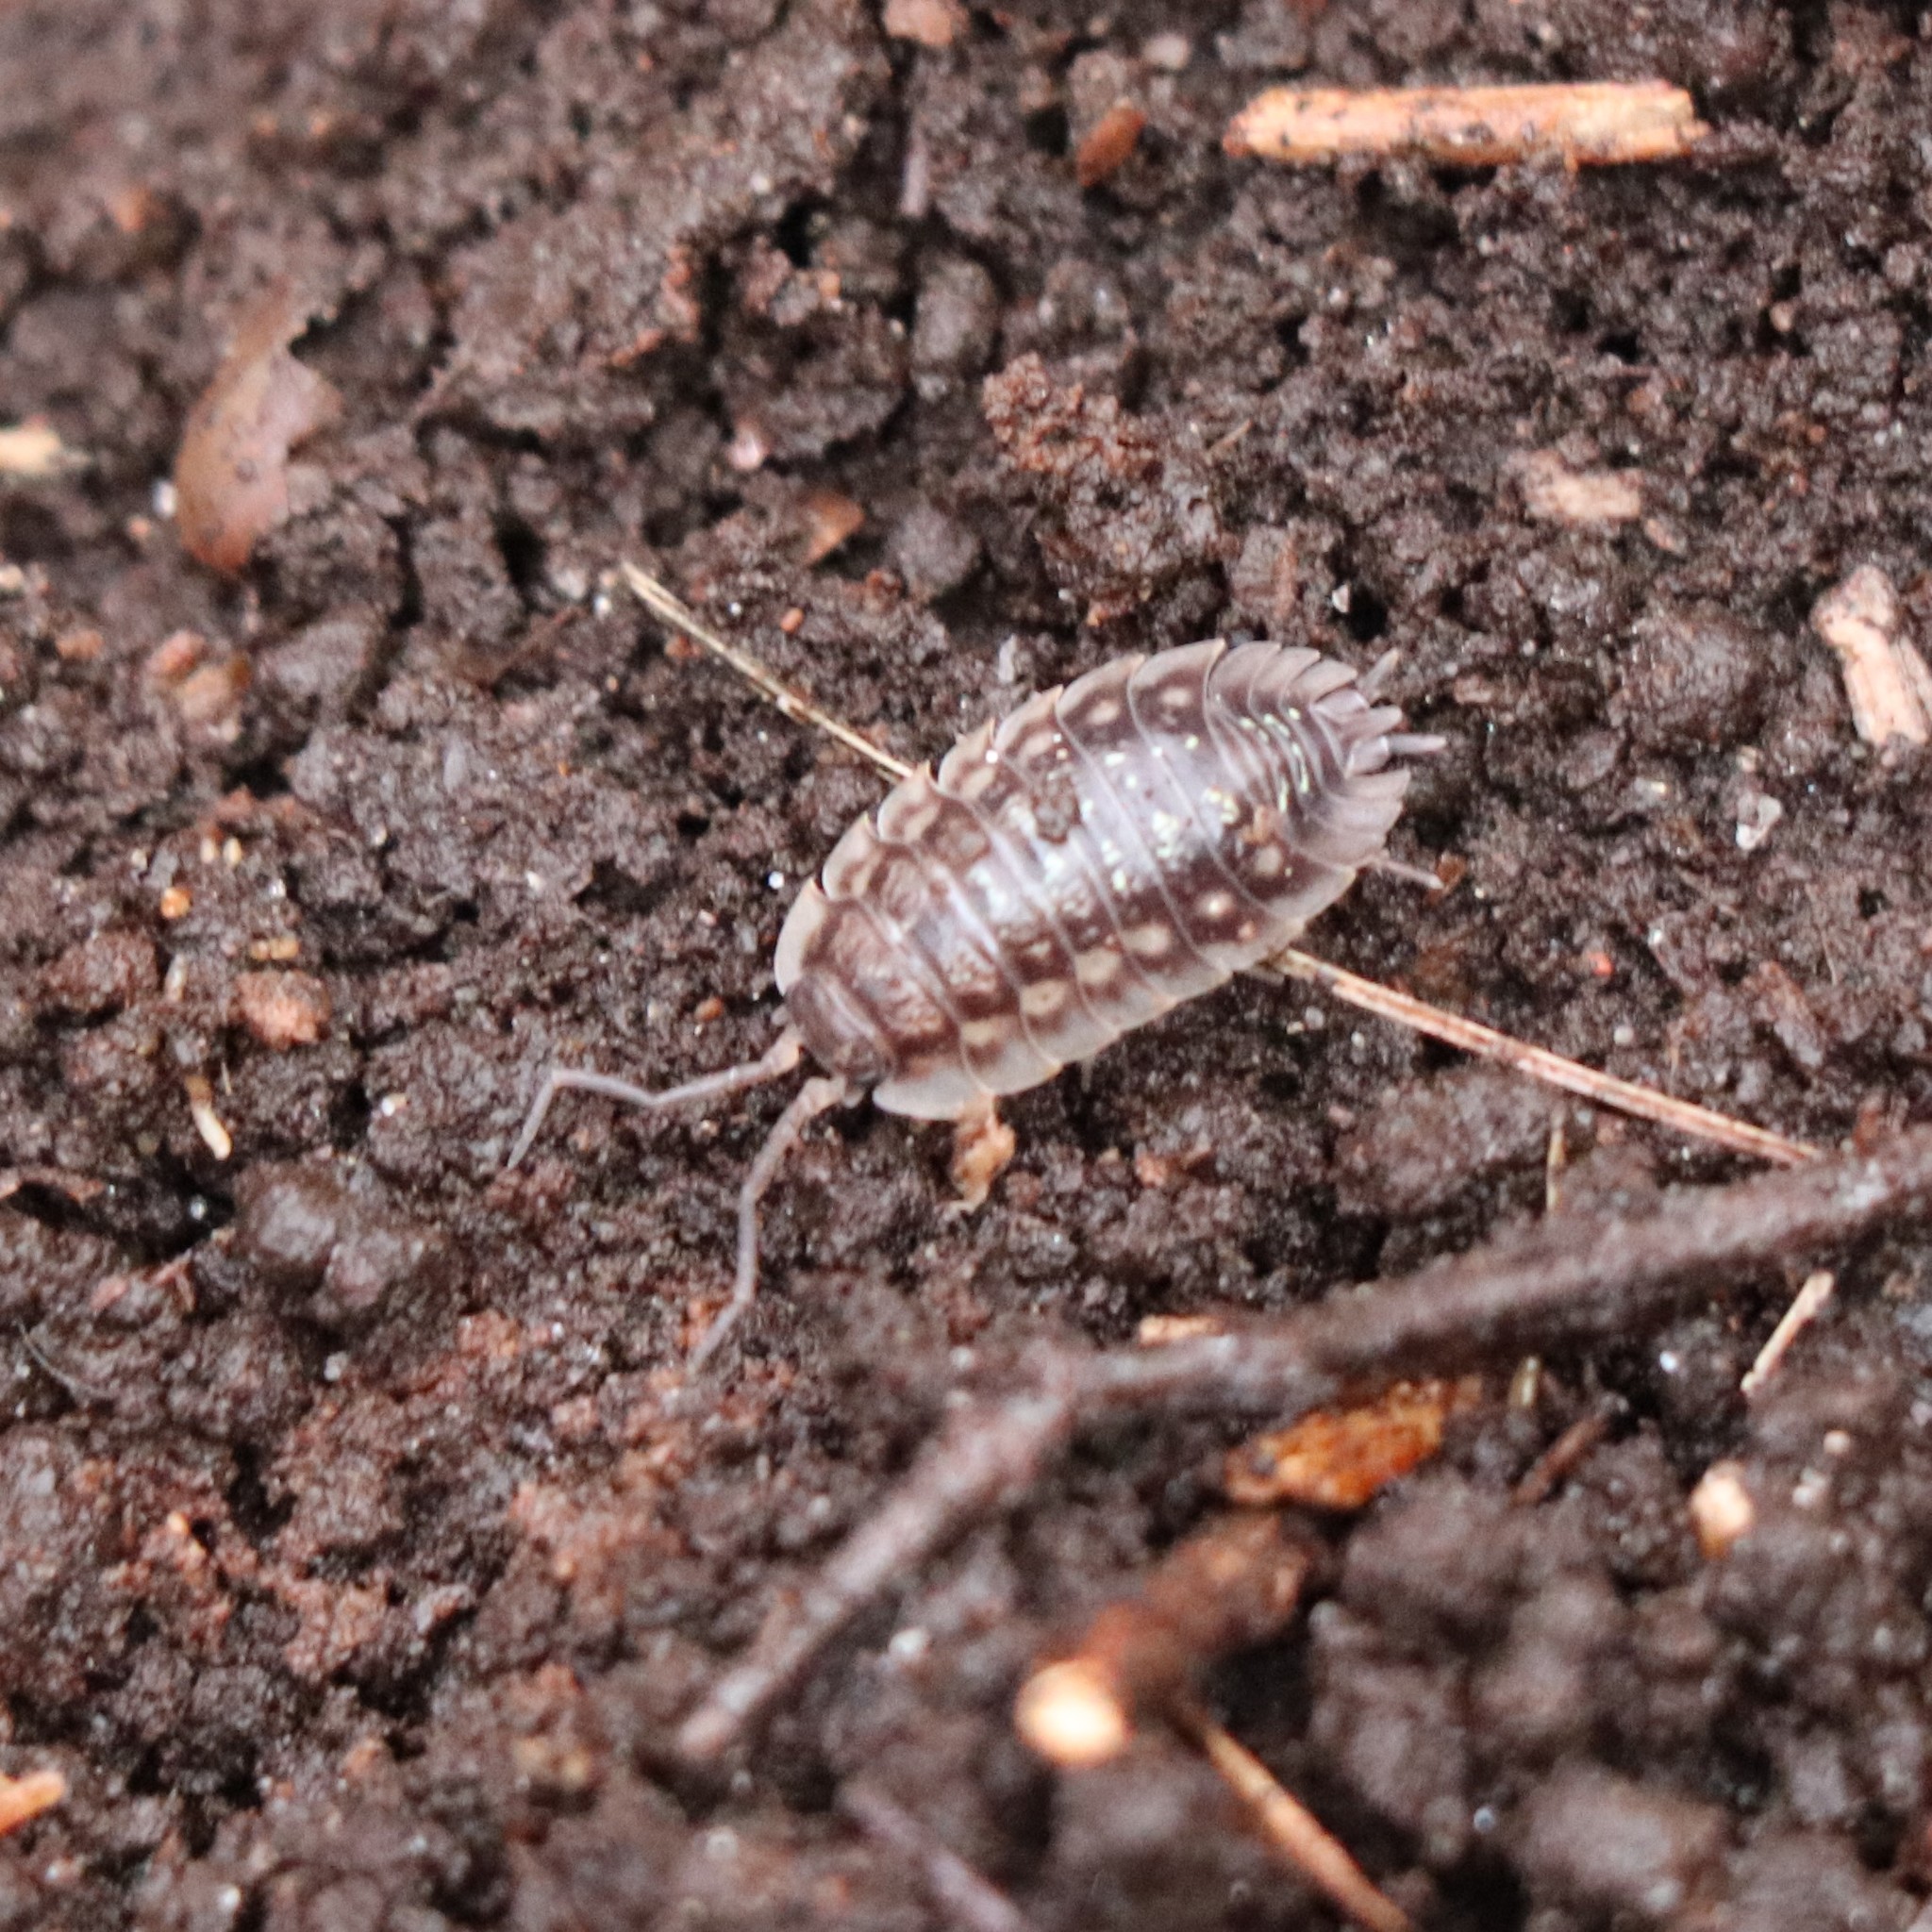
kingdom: Animalia
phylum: Arthropoda
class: Malacostraca
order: Isopoda
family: Oniscidae
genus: Oniscus
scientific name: Oniscus asellus
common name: Common shiny woodlouse
